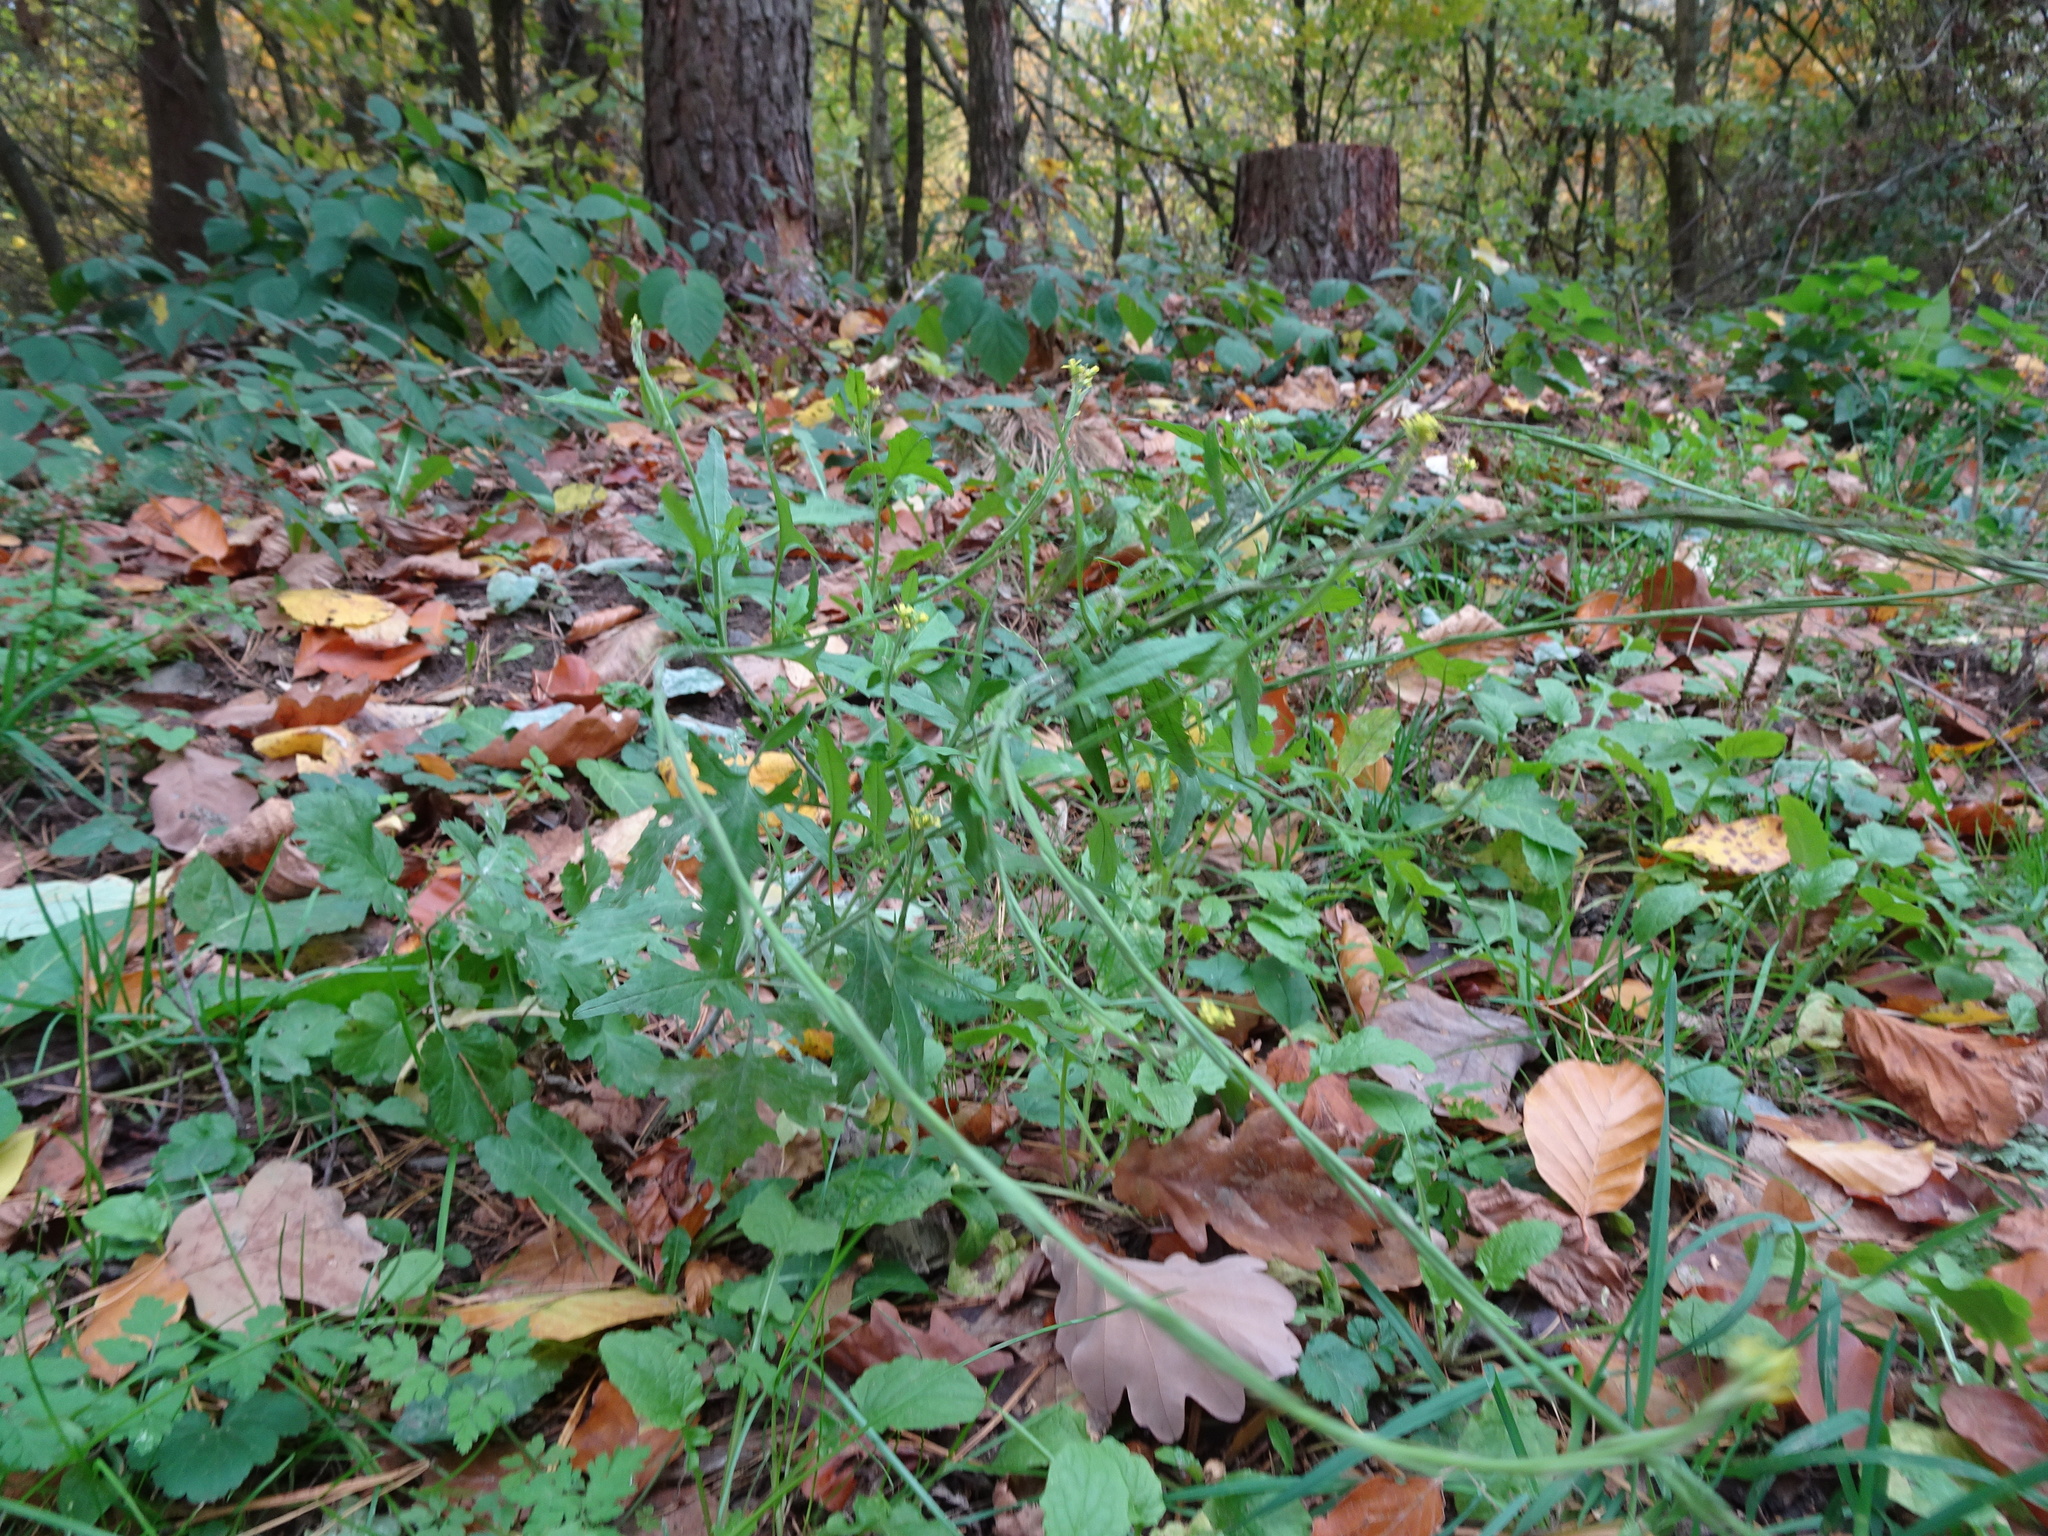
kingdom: Plantae
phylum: Tracheophyta
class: Magnoliopsida
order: Brassicales
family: Brassicaceae
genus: Sisymbrium
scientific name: Sisymbrium officinale
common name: Hedge mustard
